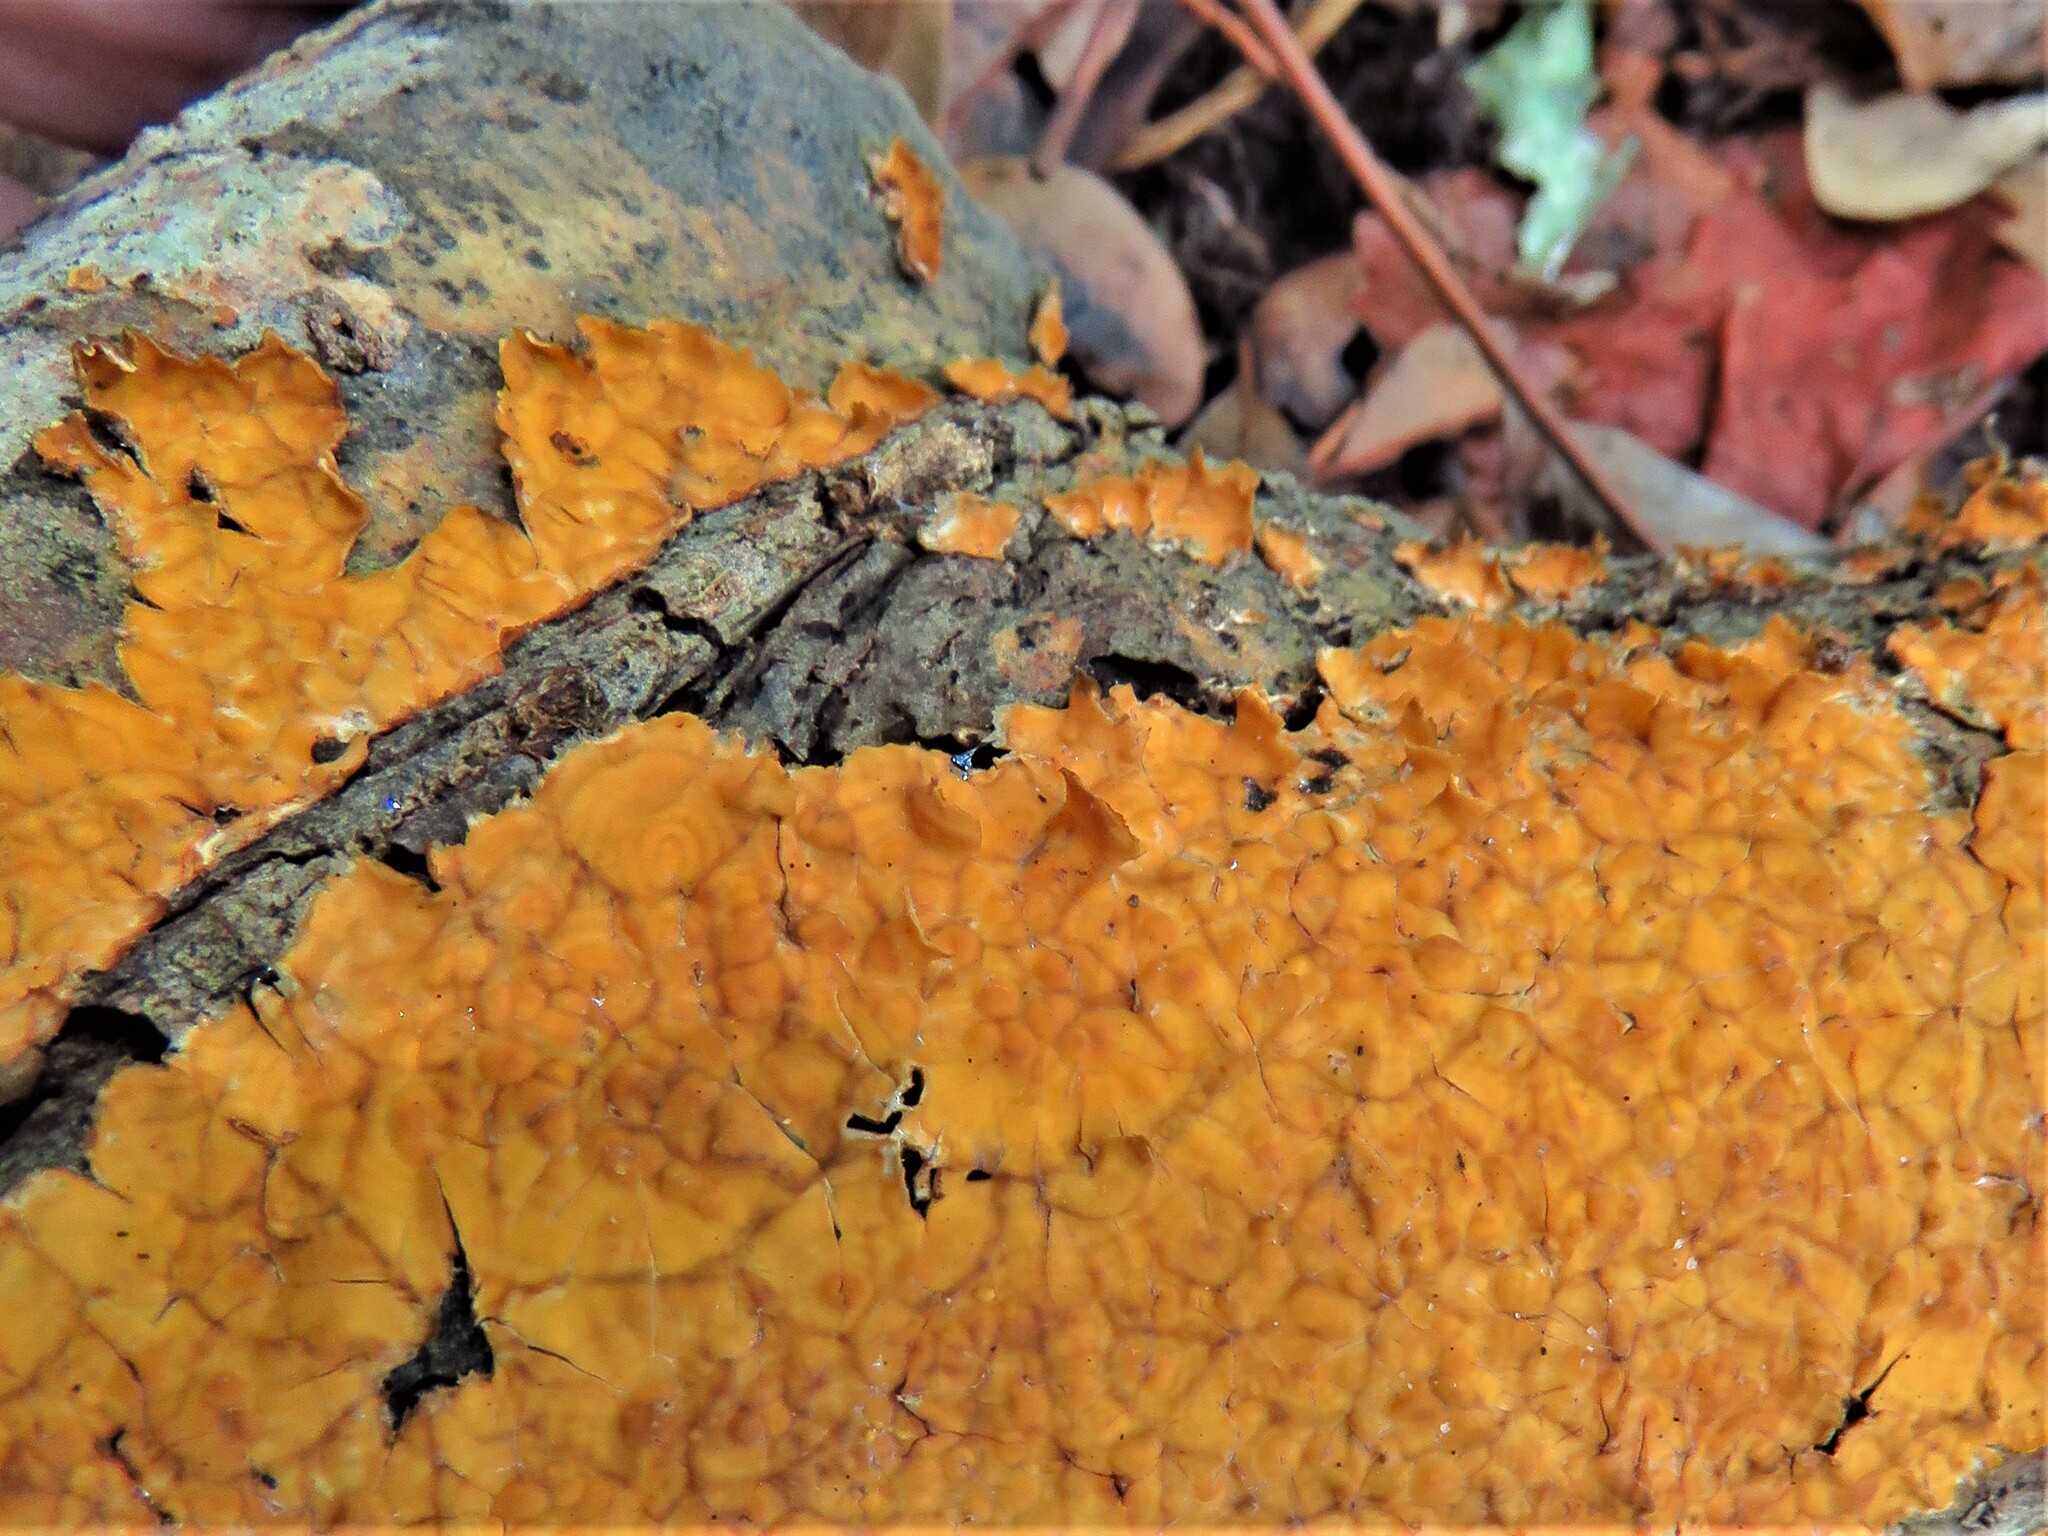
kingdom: Fungi
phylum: Basidiomycota
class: Agaricomycetes
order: Russulales
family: Stereaceae
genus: Stereum
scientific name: Stereum complicatum
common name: Crowded parchment
